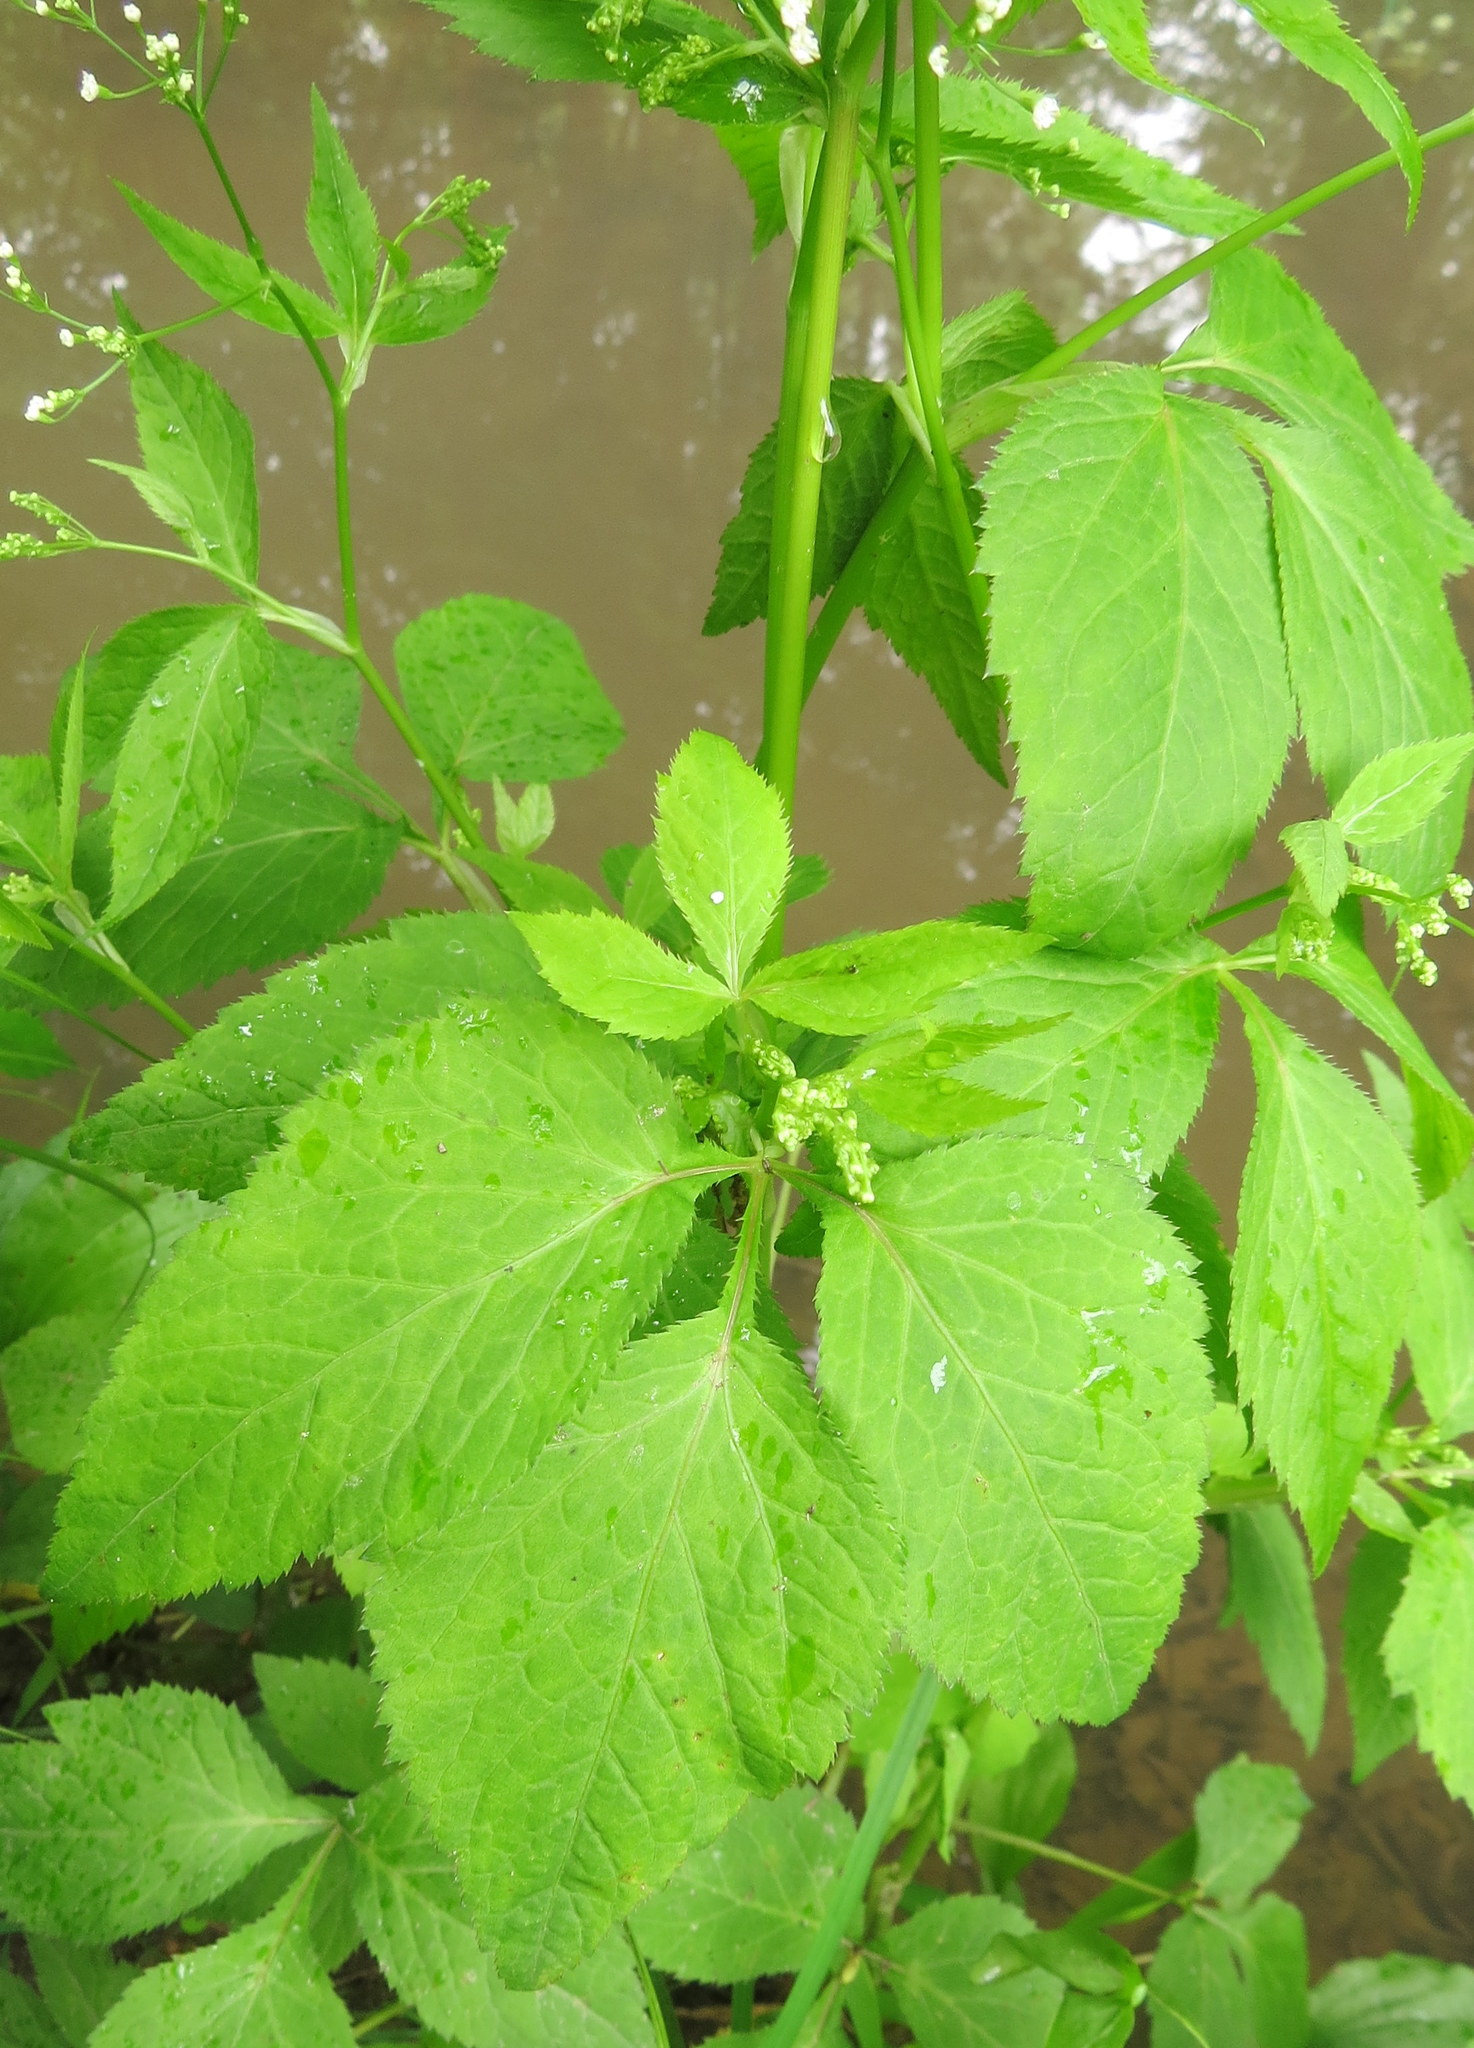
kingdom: Plantae
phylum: Tracheophyta
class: Magnoliopsida
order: Apiales
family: Apiaceae
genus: Cryptotaenia
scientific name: Cryptotaenia canadensis
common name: Honewort
